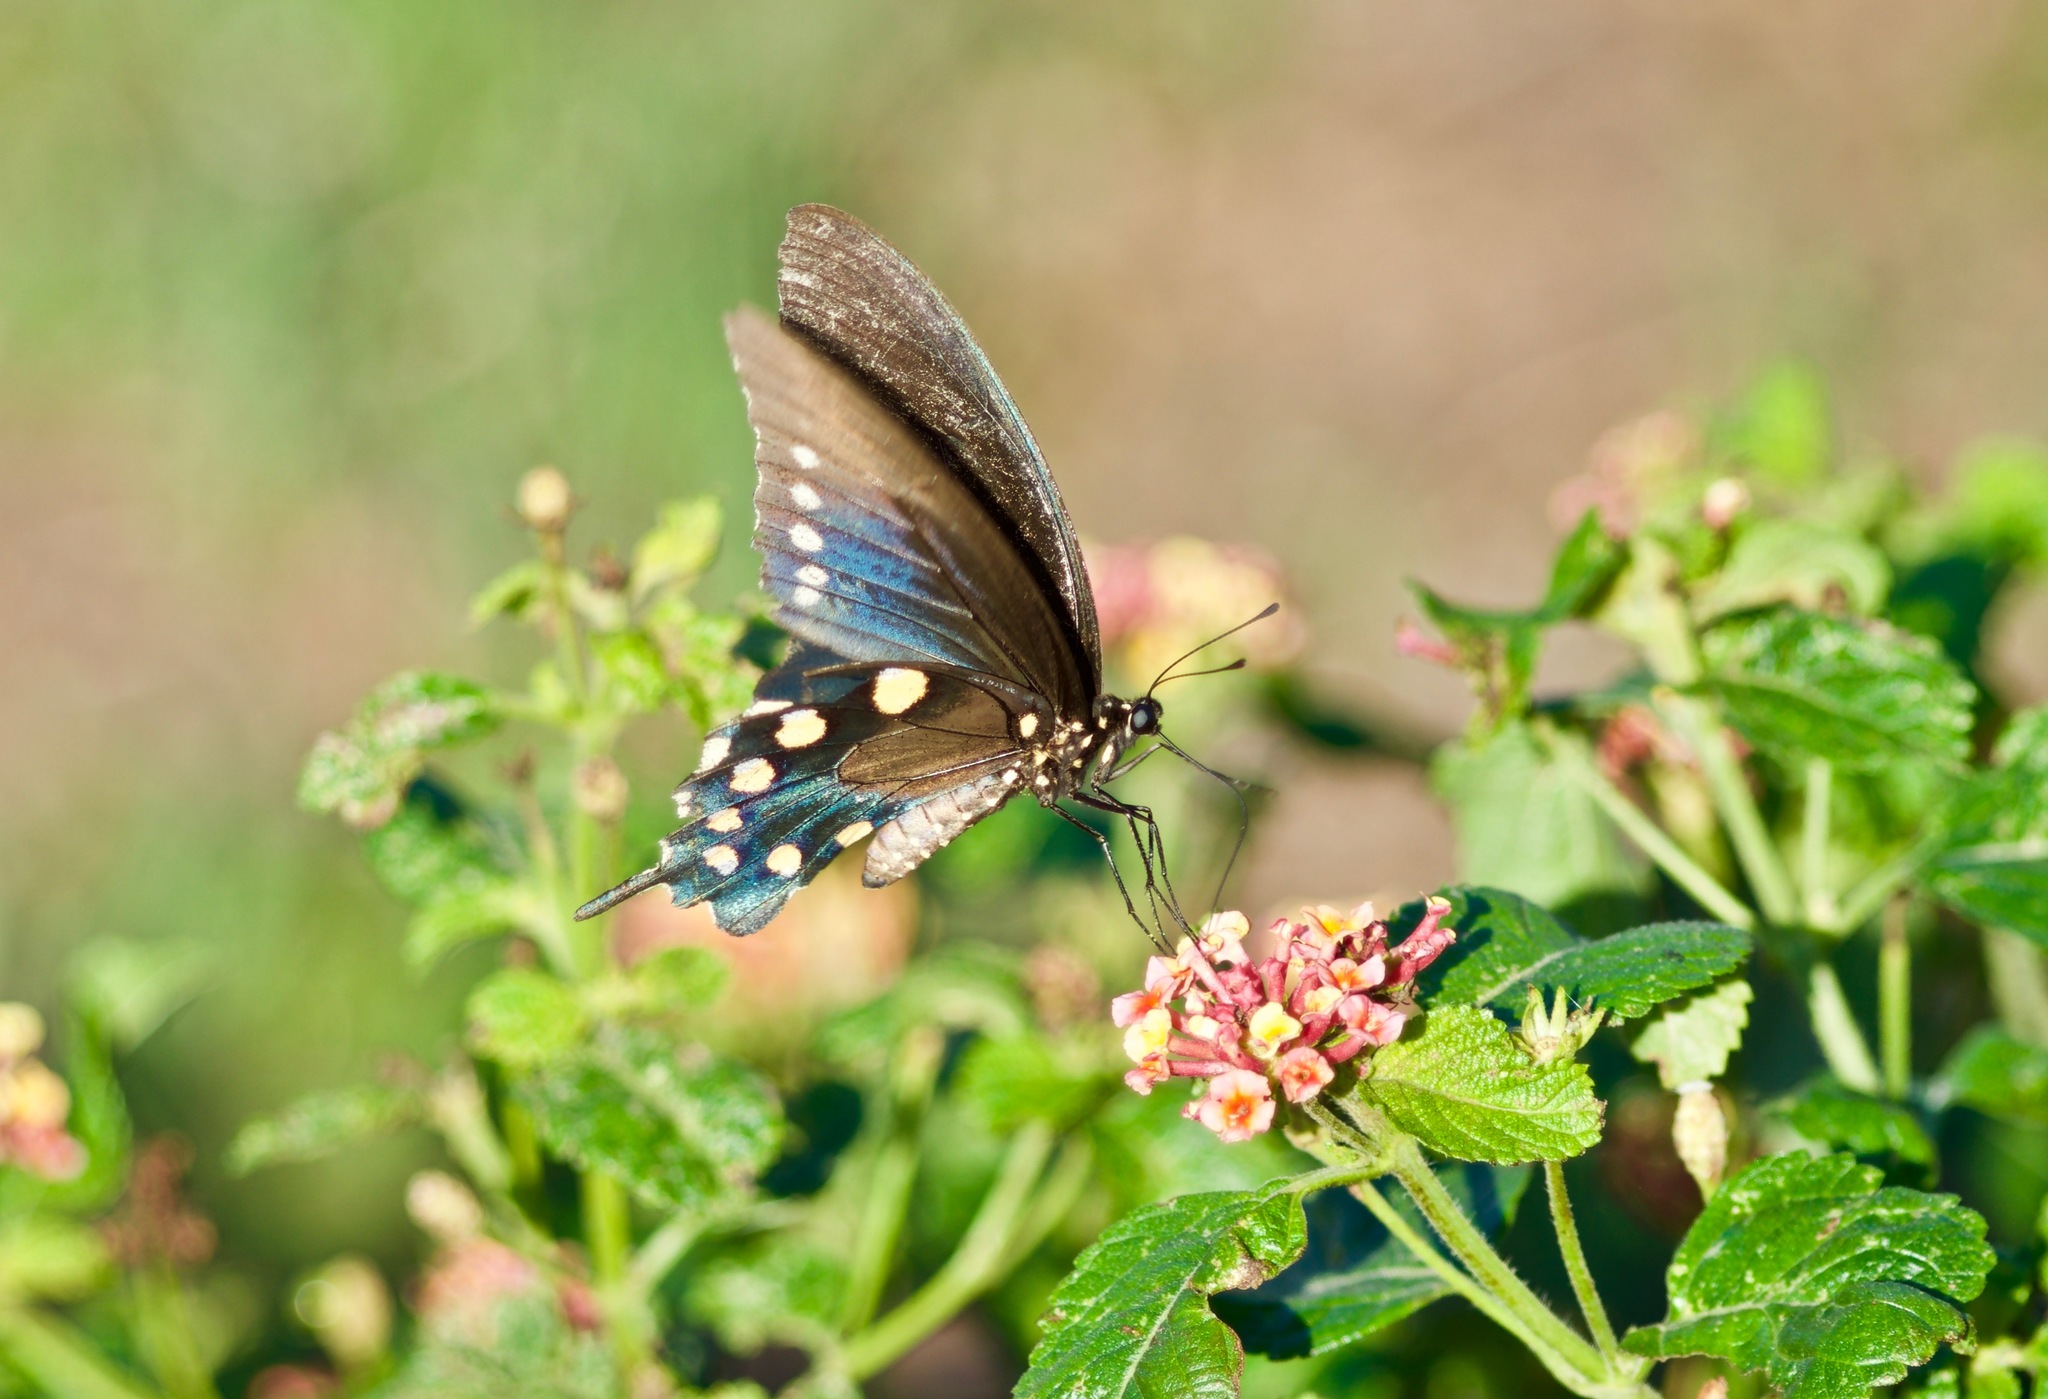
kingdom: Animalia
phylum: Arthropoda
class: Insecta
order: Lepidoptera
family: Papilionidae
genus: Battus
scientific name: Battus philenor
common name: Pipevine swallowtail
